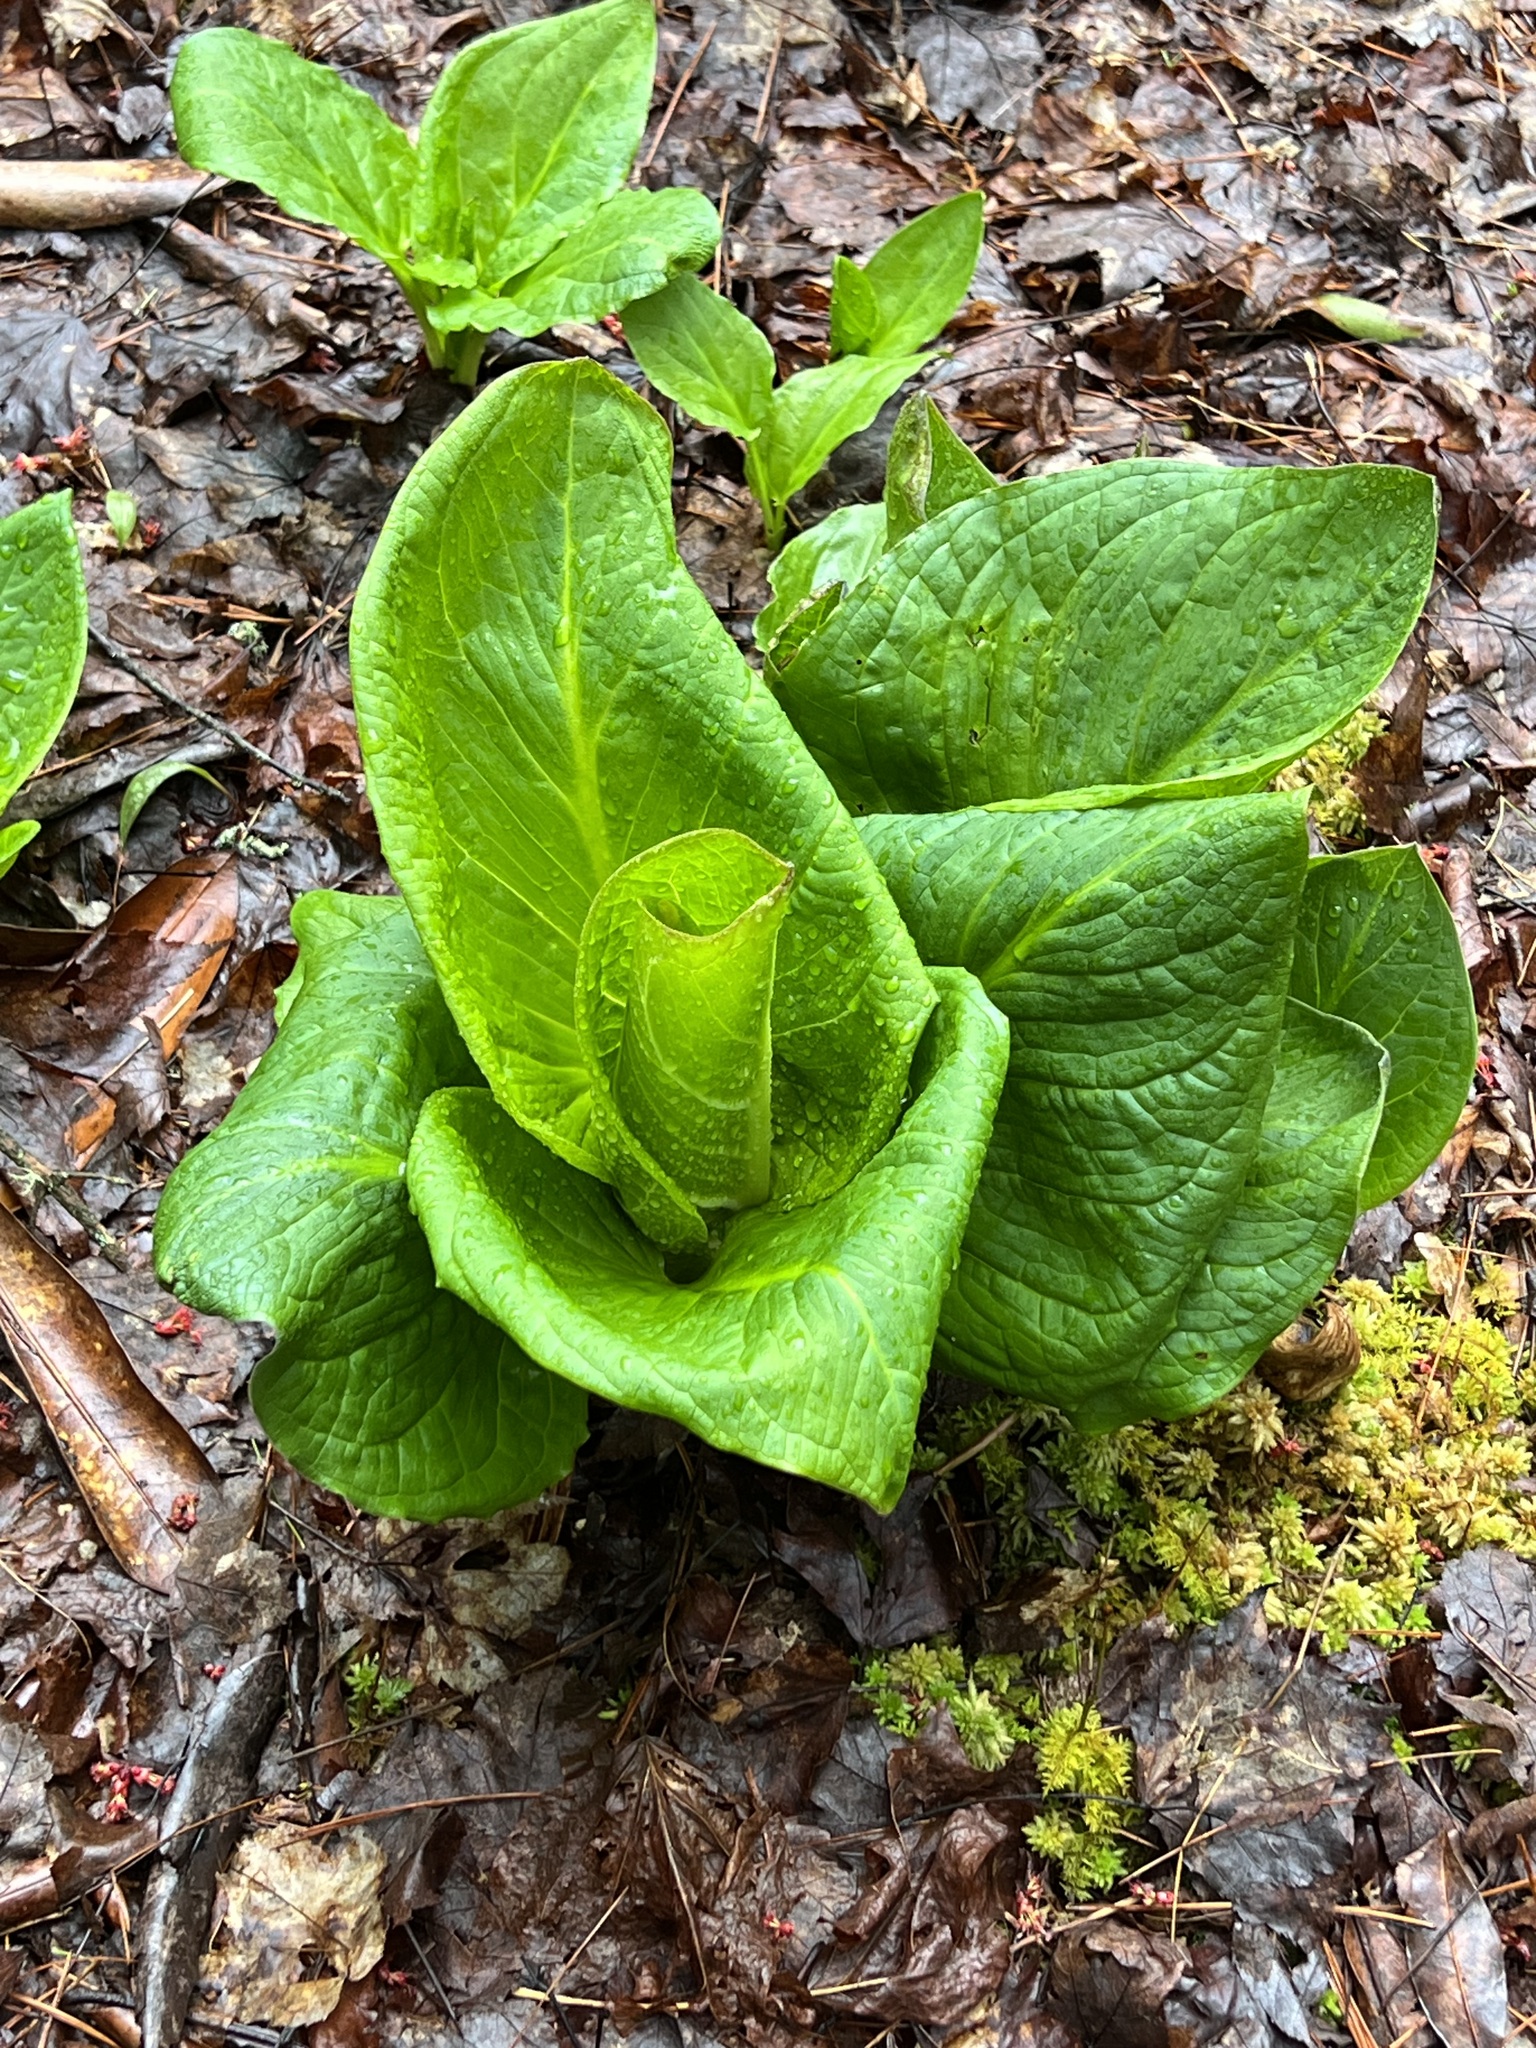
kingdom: Plantae
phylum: Tracheophyta
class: Liliopsida
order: Alismatales
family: Araceae
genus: Symplocarpus
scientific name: Symplocarpus foetidus
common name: Eastern skunk cabbage
